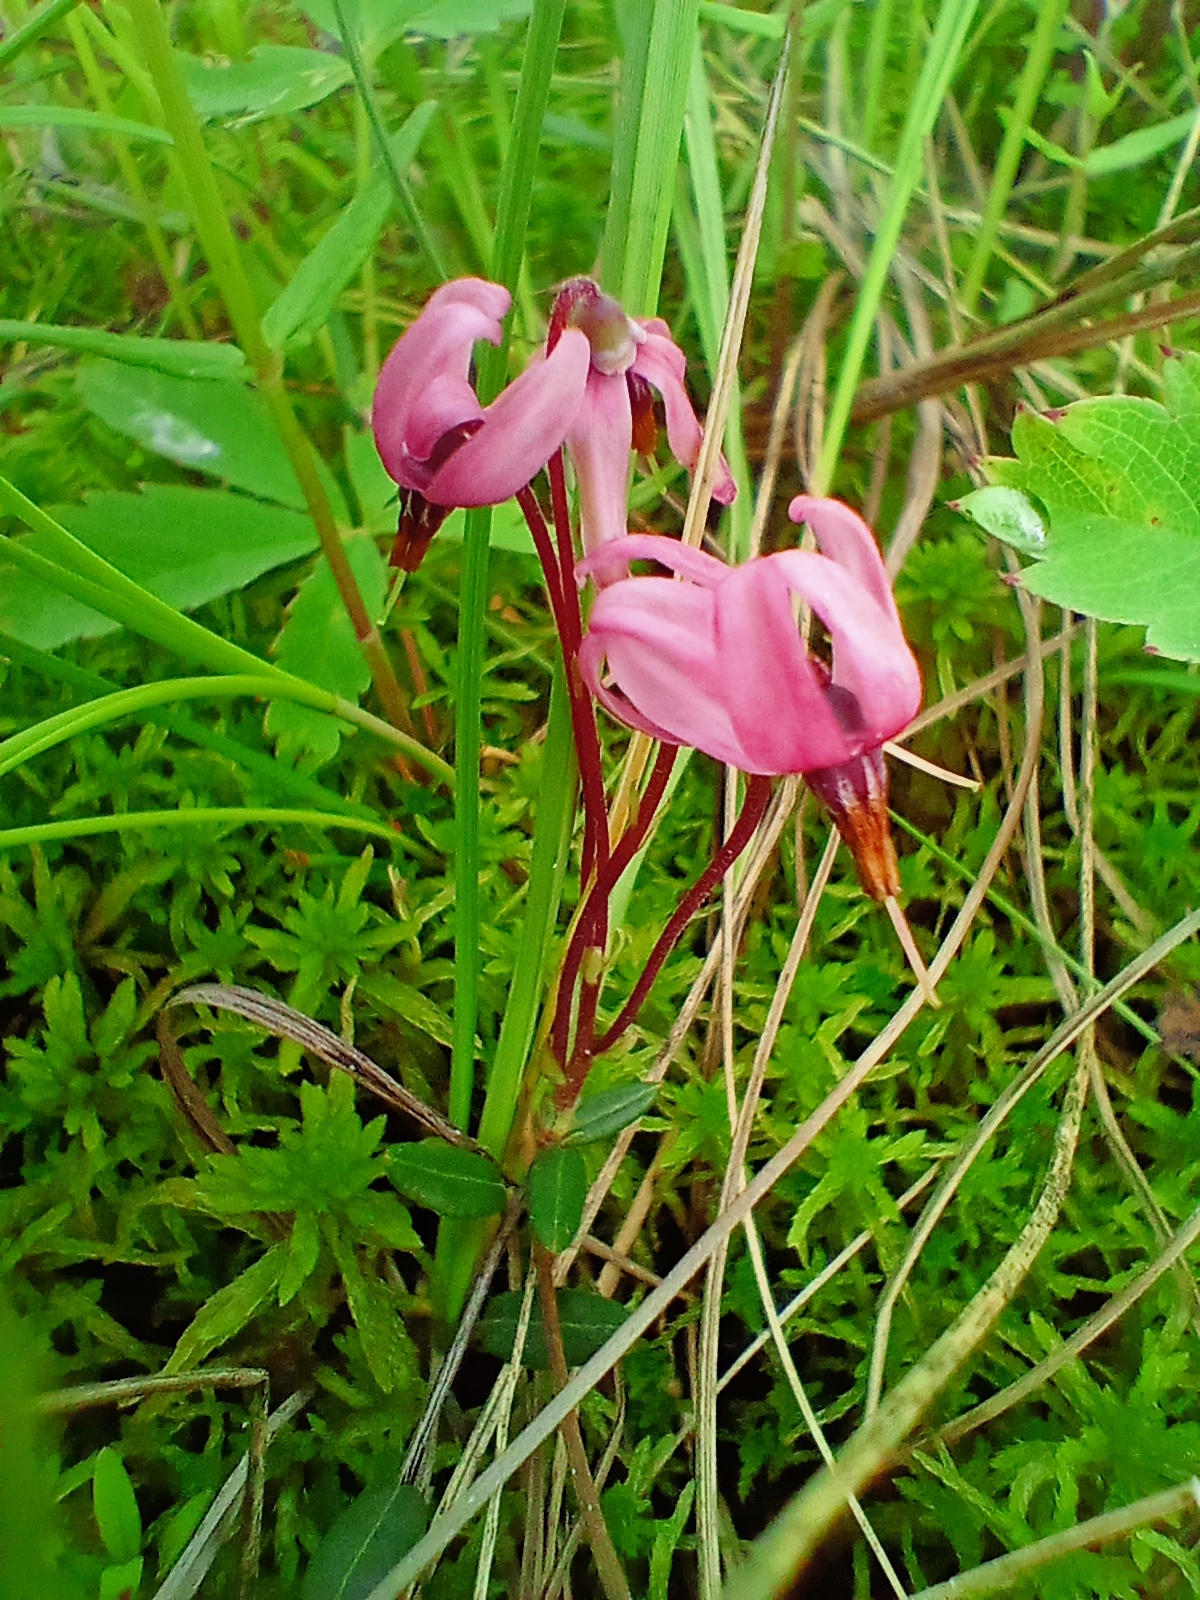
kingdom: Plantae
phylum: Tracheophyta
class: Magnoliopsida
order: Ericales
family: Ericaceae
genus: Vaccinium
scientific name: Vaccinium oxycoccos
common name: Cranberry
